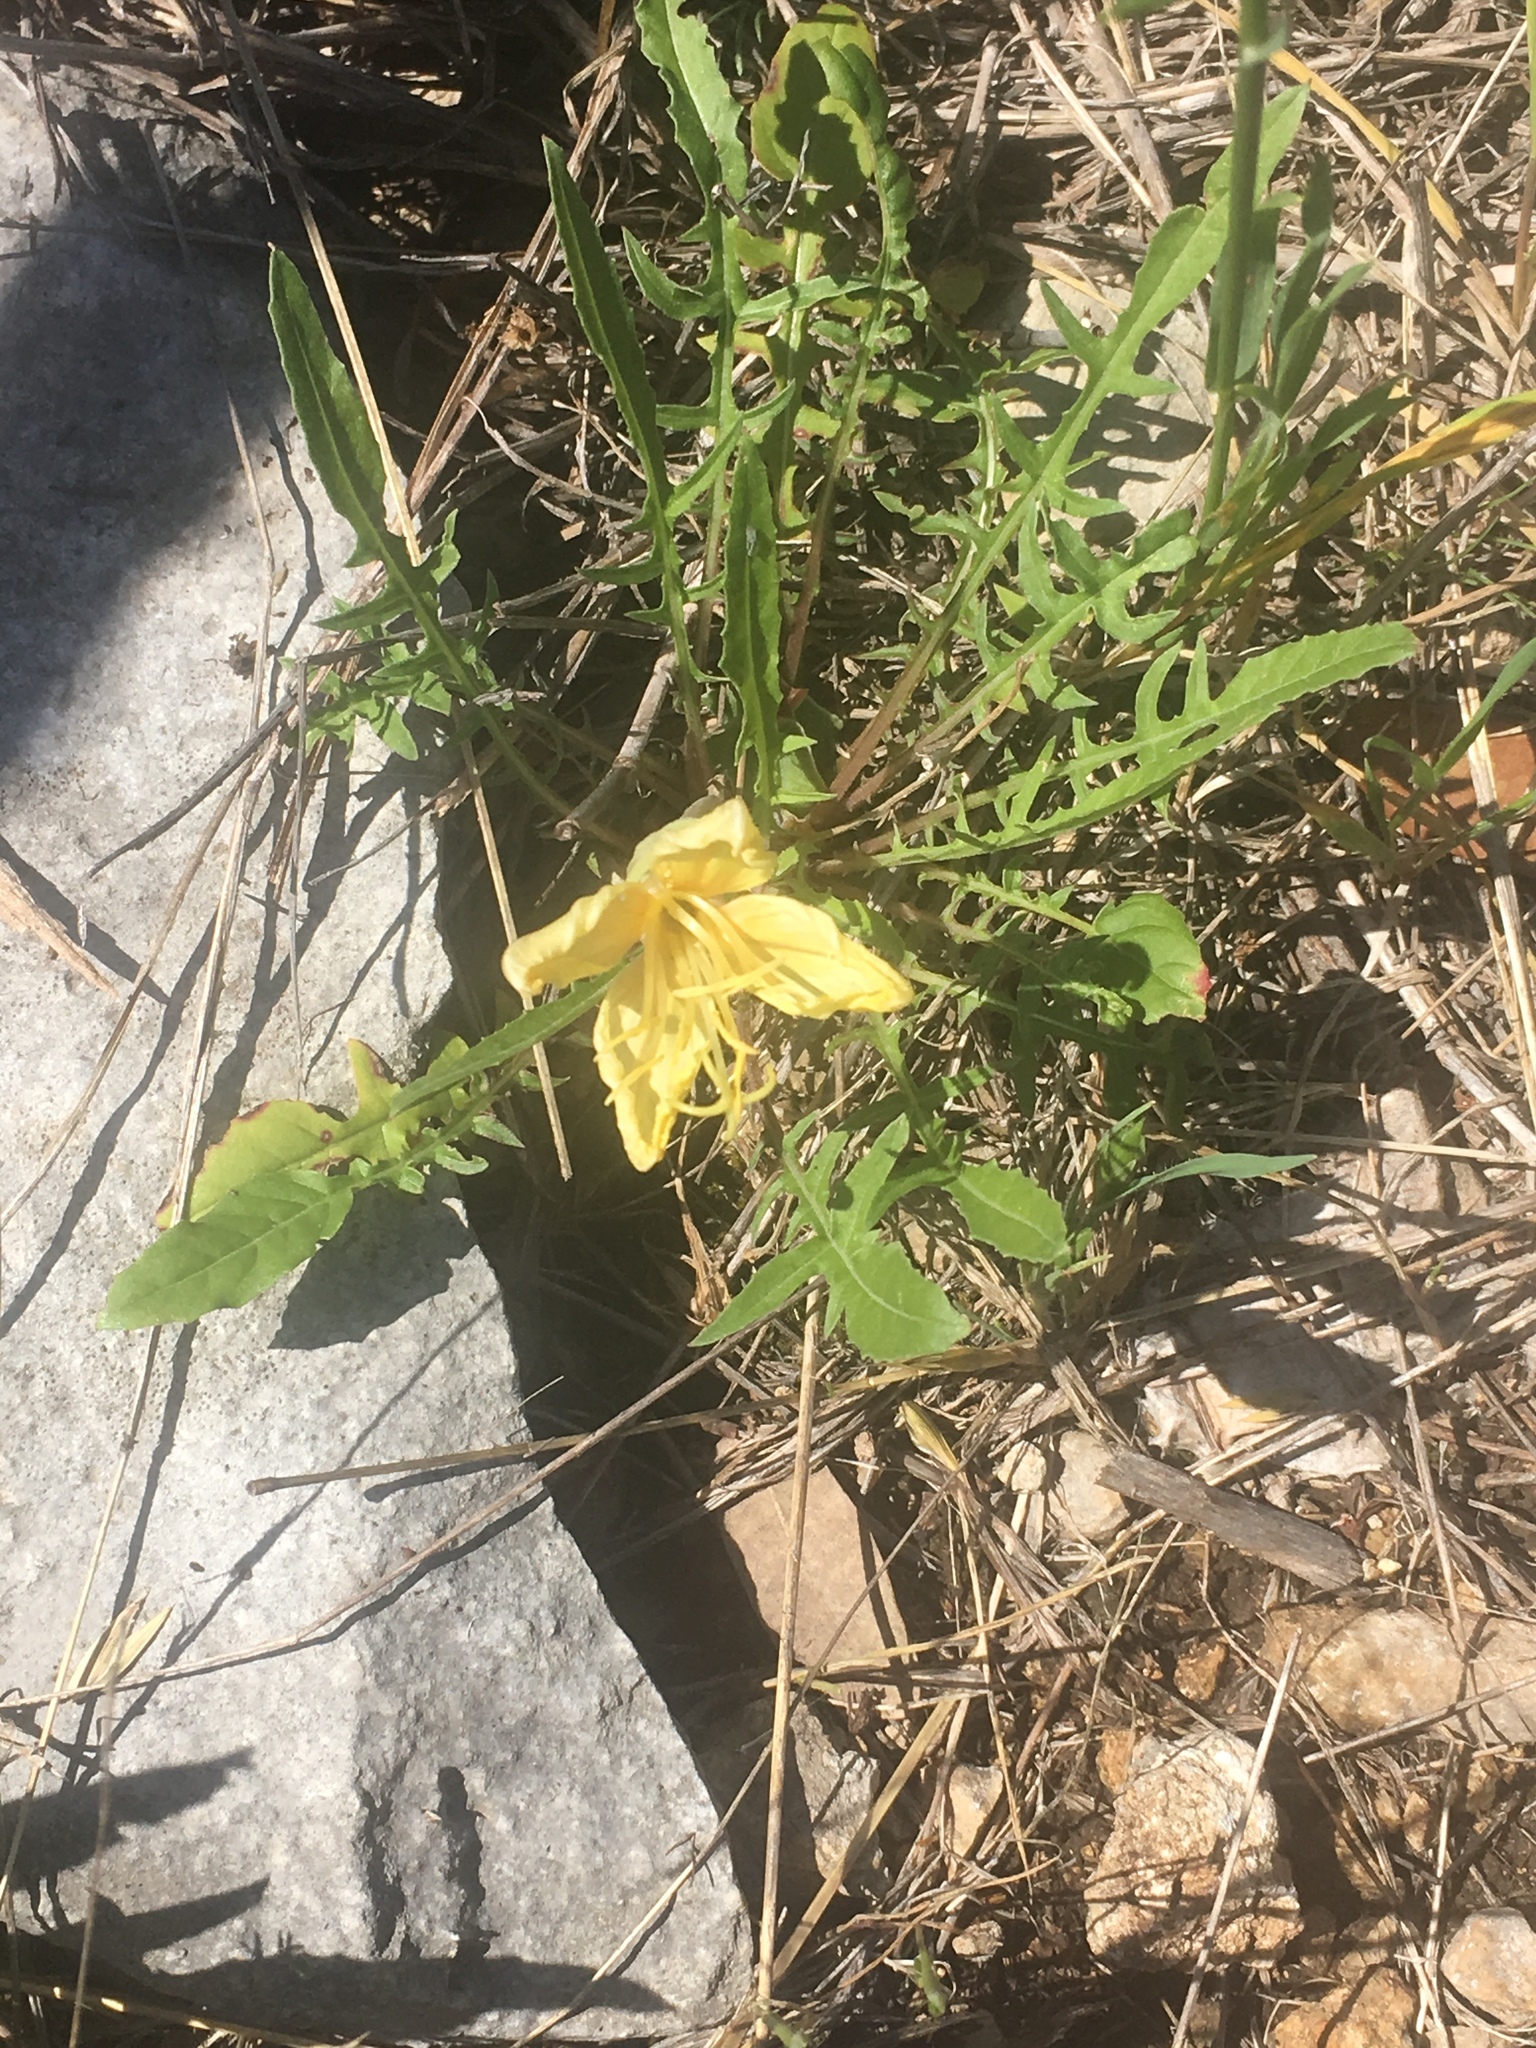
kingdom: Plantae
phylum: Tracheophyta
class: Magnoliopsida
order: Myrtales
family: Onagraceae
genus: Oenothera
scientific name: Oenothera triloba
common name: Sessile evening-primrose
